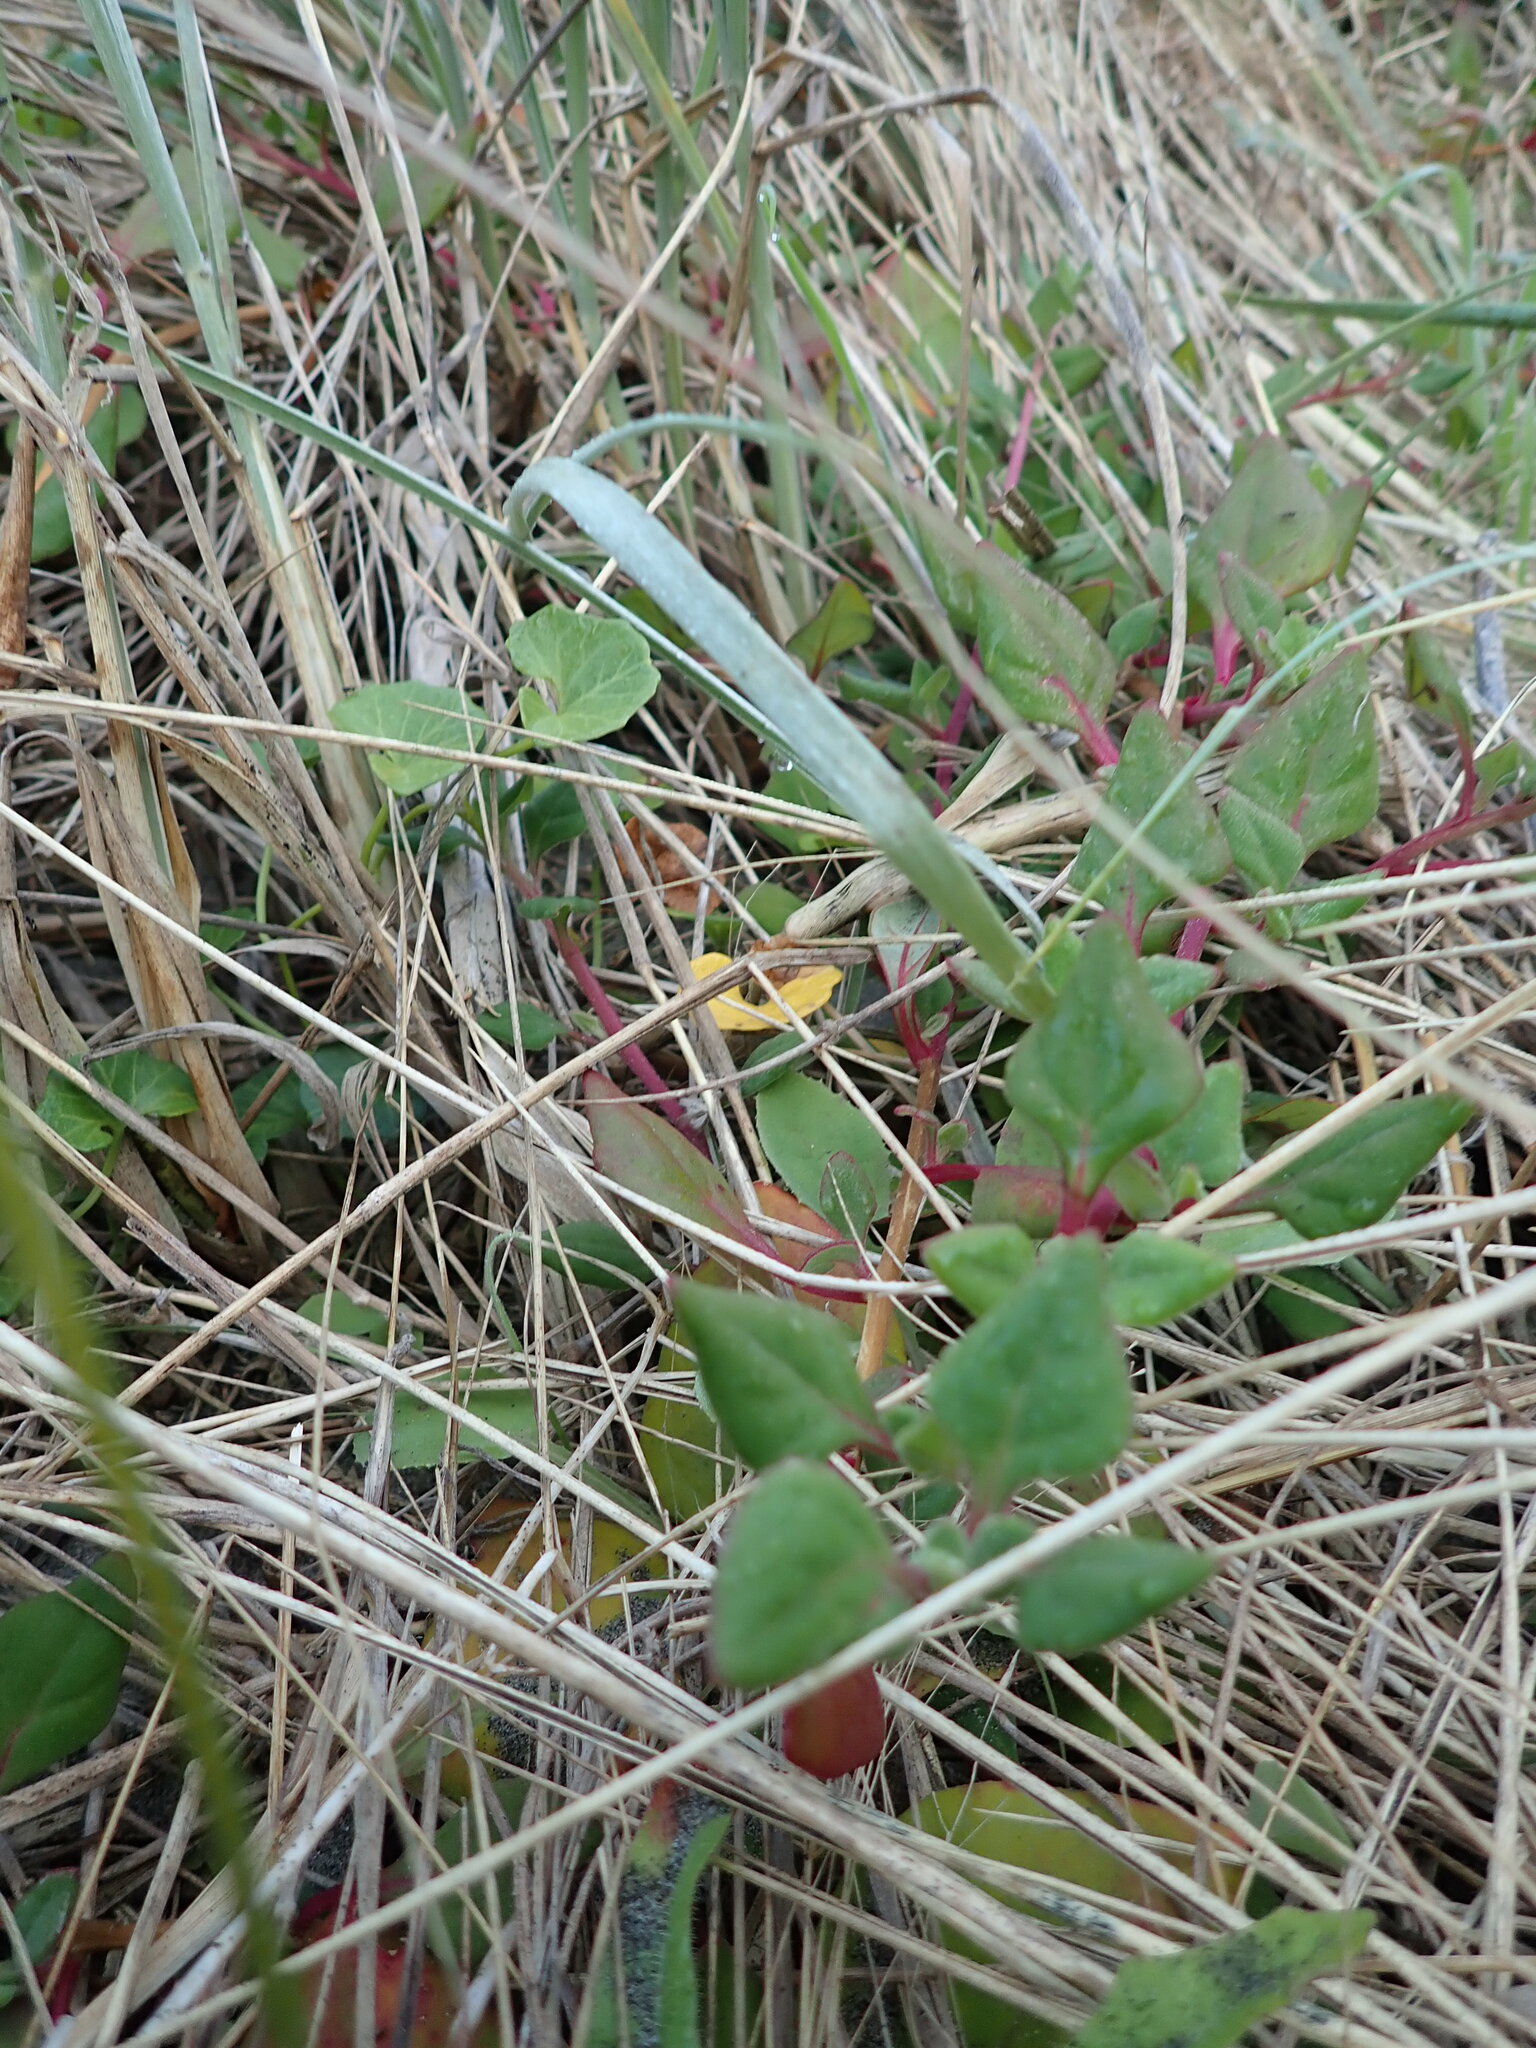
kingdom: Plantae
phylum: Tracheophyta
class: Magnoliopsida
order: Caryophyllales
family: Aizoaceae
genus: Tetragonia
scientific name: Tetragonia implexicoma
